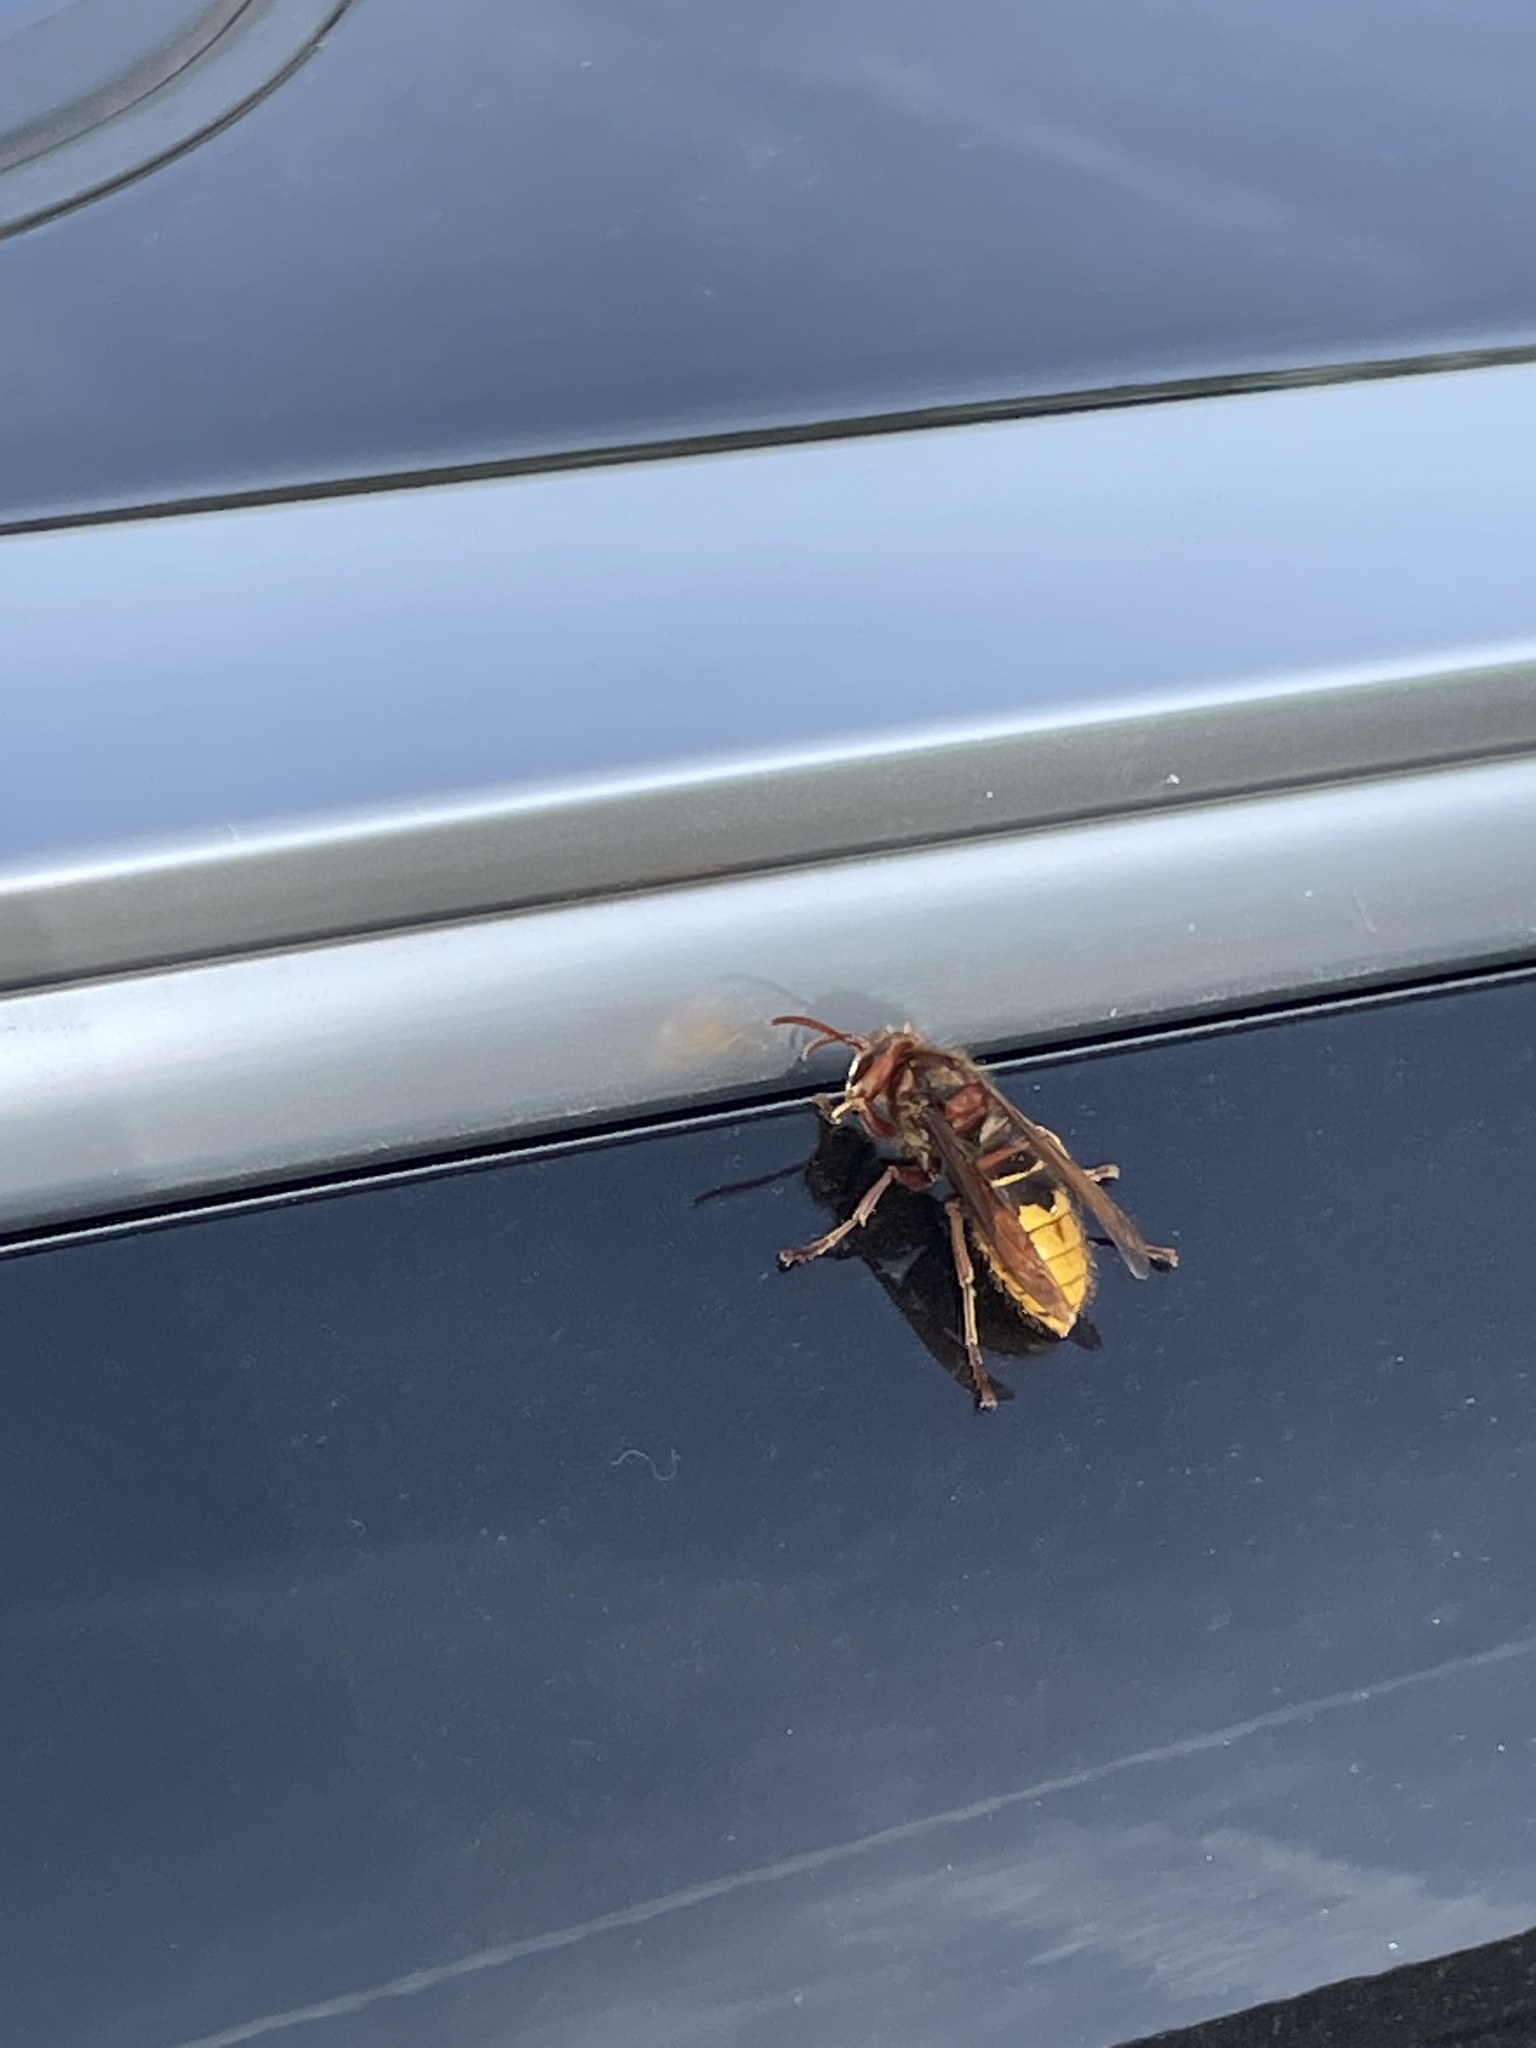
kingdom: Animalia
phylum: Arthropoda
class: Insecta
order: Hymenoptera
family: Vespidae
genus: Vespa
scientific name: Vespa crabro
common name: Hornet
